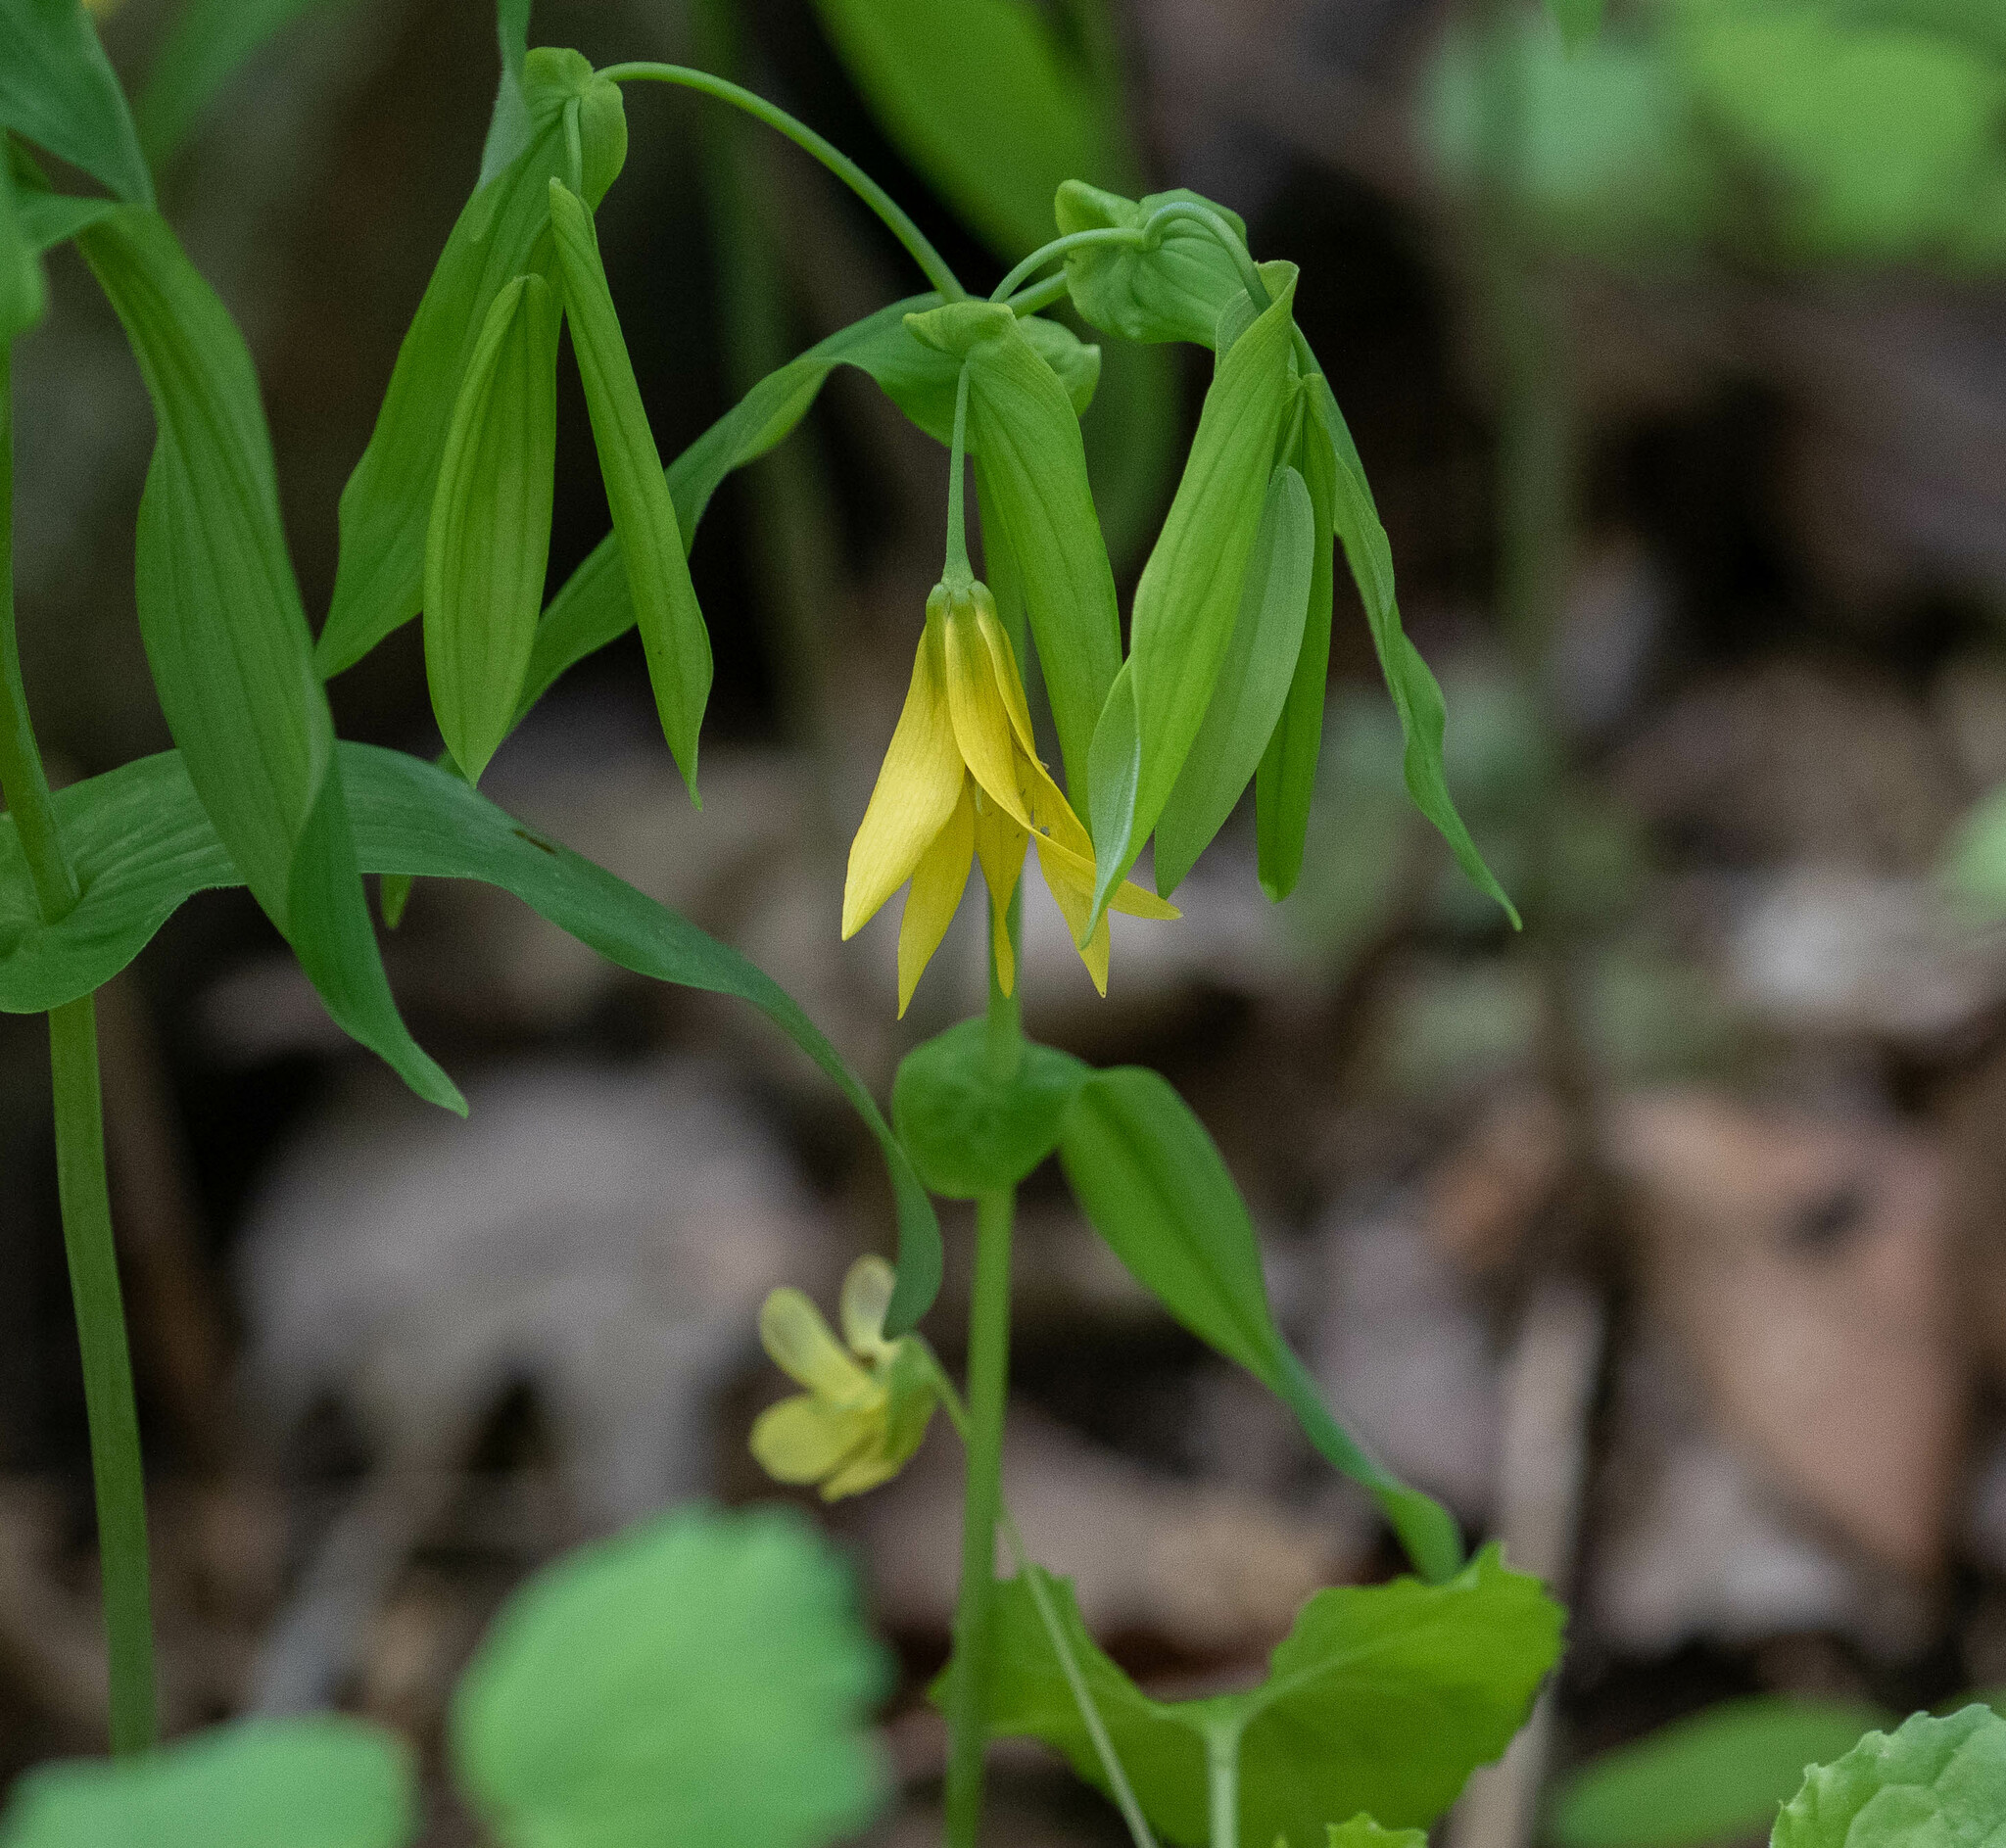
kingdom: Plantae
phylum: Tracheophyta
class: Liliopsida
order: Liliales
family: Colchicaceae
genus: Uvularia
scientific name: Uvularia grandiflora
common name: Bellwort
